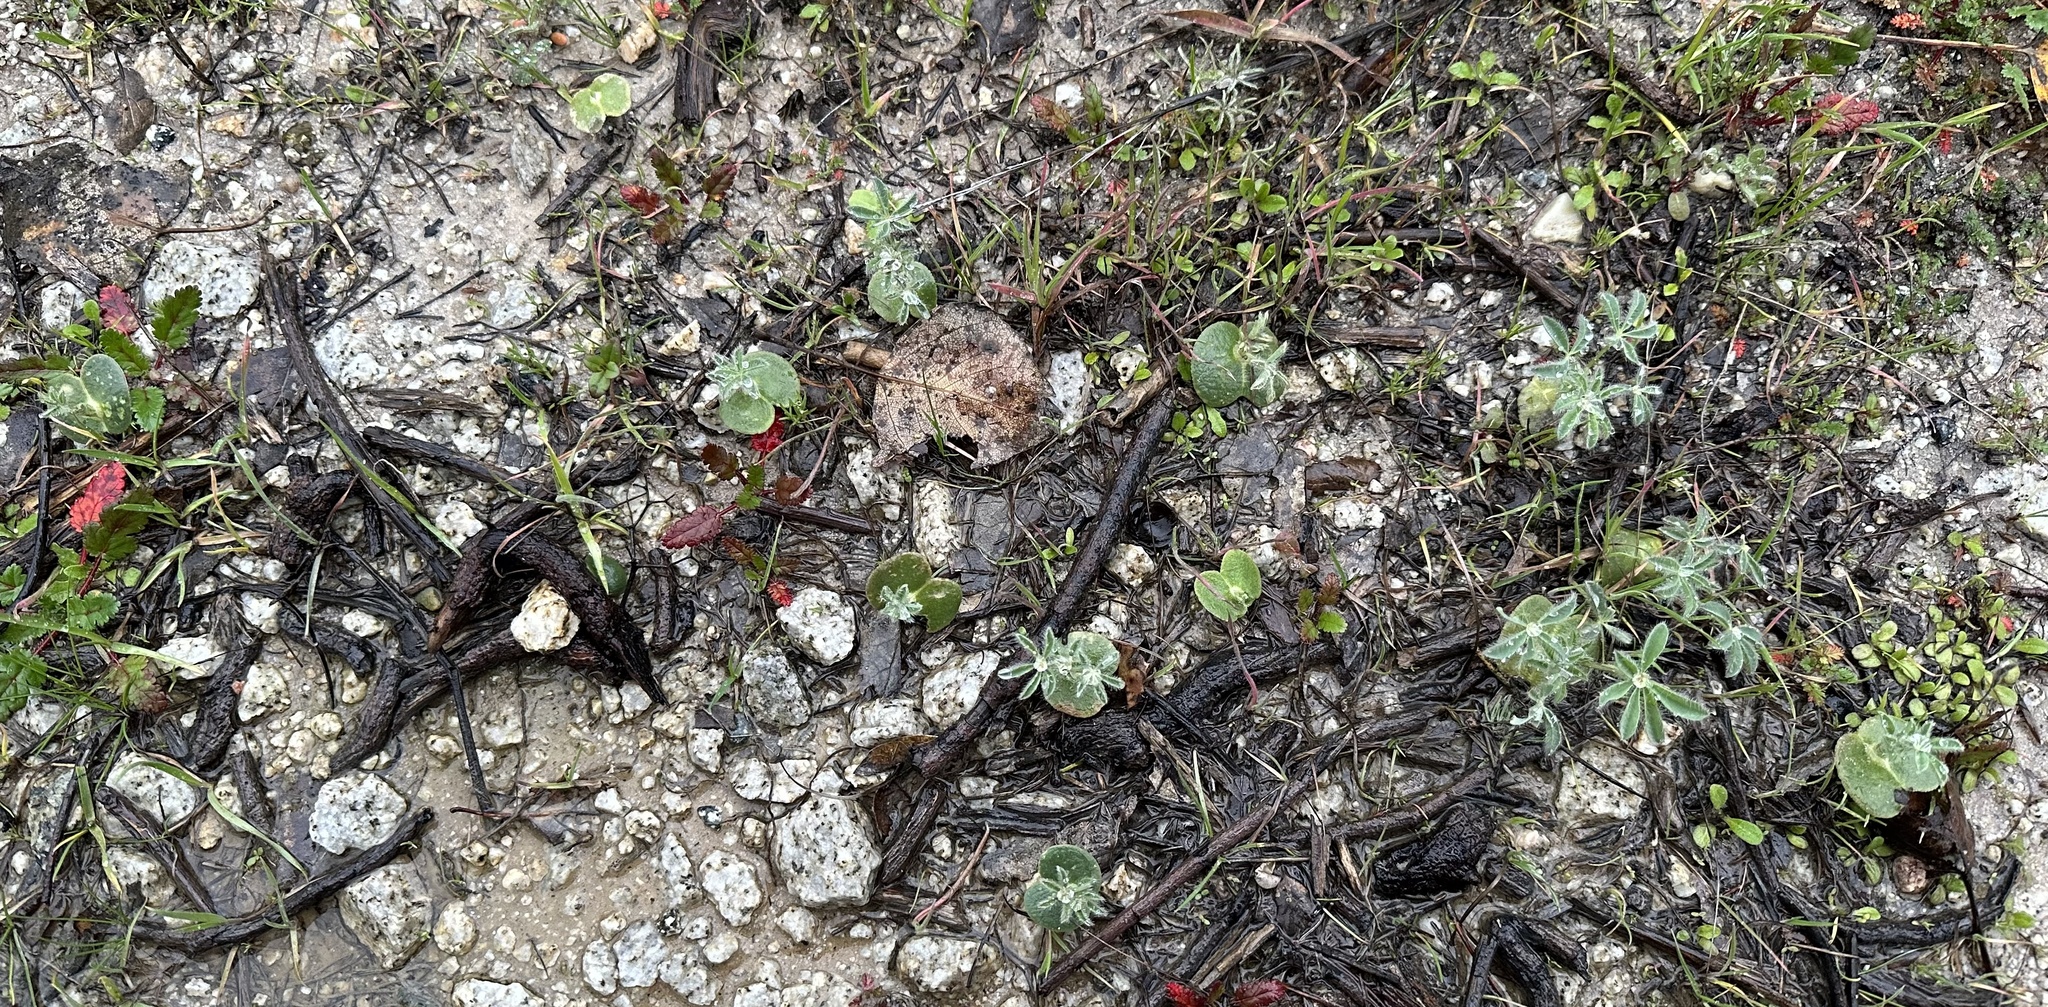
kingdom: Plantae
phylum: Tracheophyta
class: Magnoliopsida
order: Fabales
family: Fabaceae
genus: Lupinus
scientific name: Lupinus microcarpus
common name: Chick lupine
